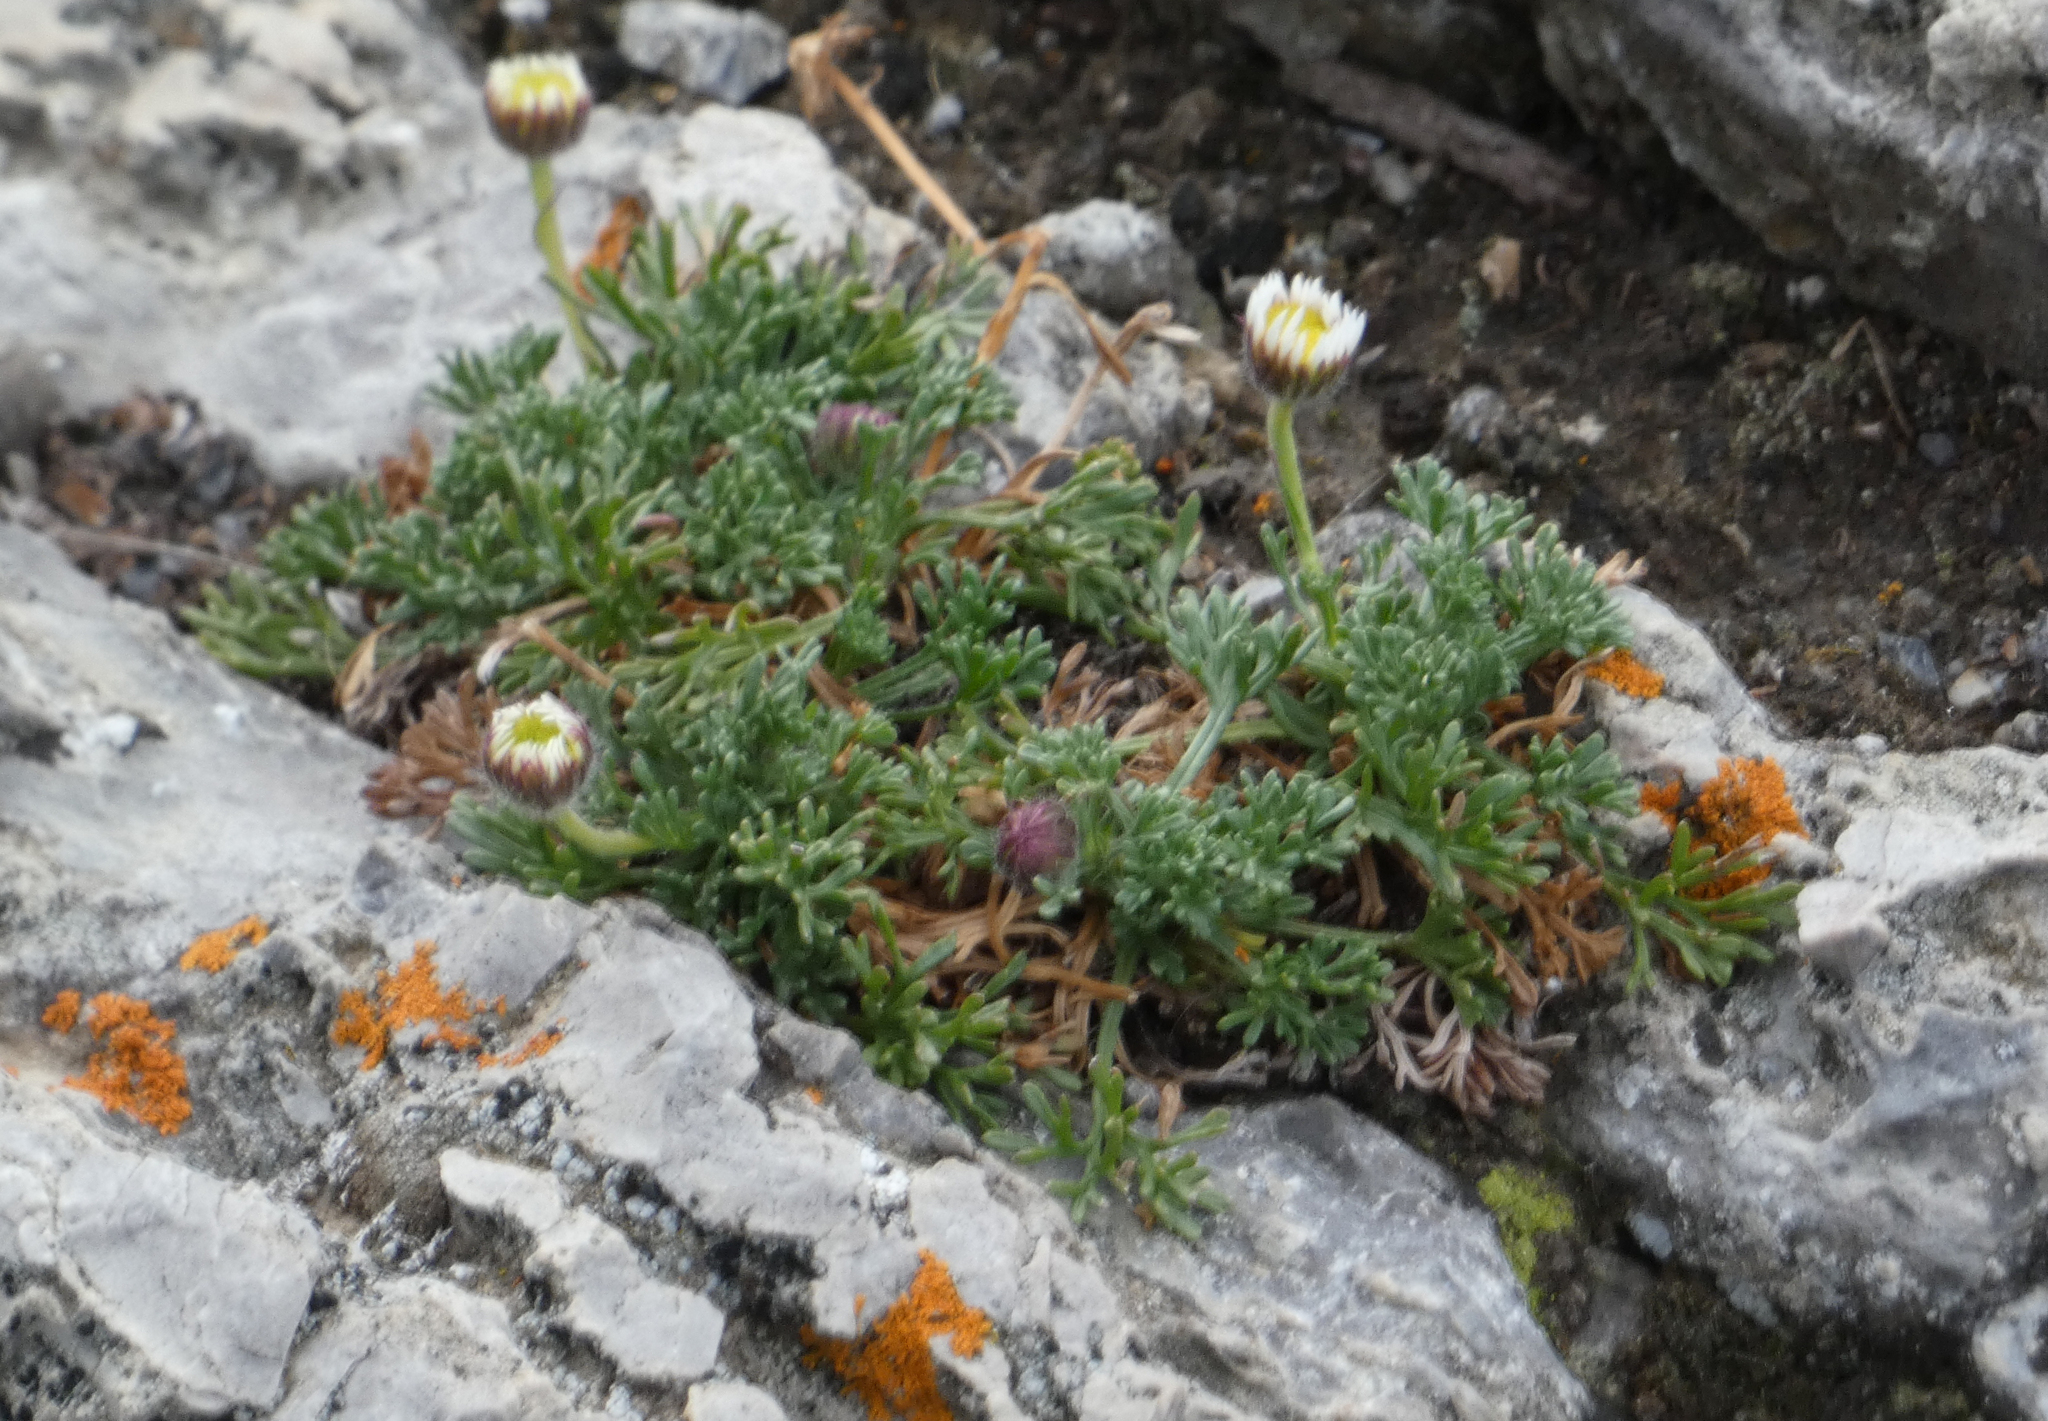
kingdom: Plantae
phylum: Tracheophyta
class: Magnoliopsida
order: Asterales
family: Asteraceae
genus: Erigeron
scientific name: Erigeron compositus
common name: Dwarf mountain fleabane
